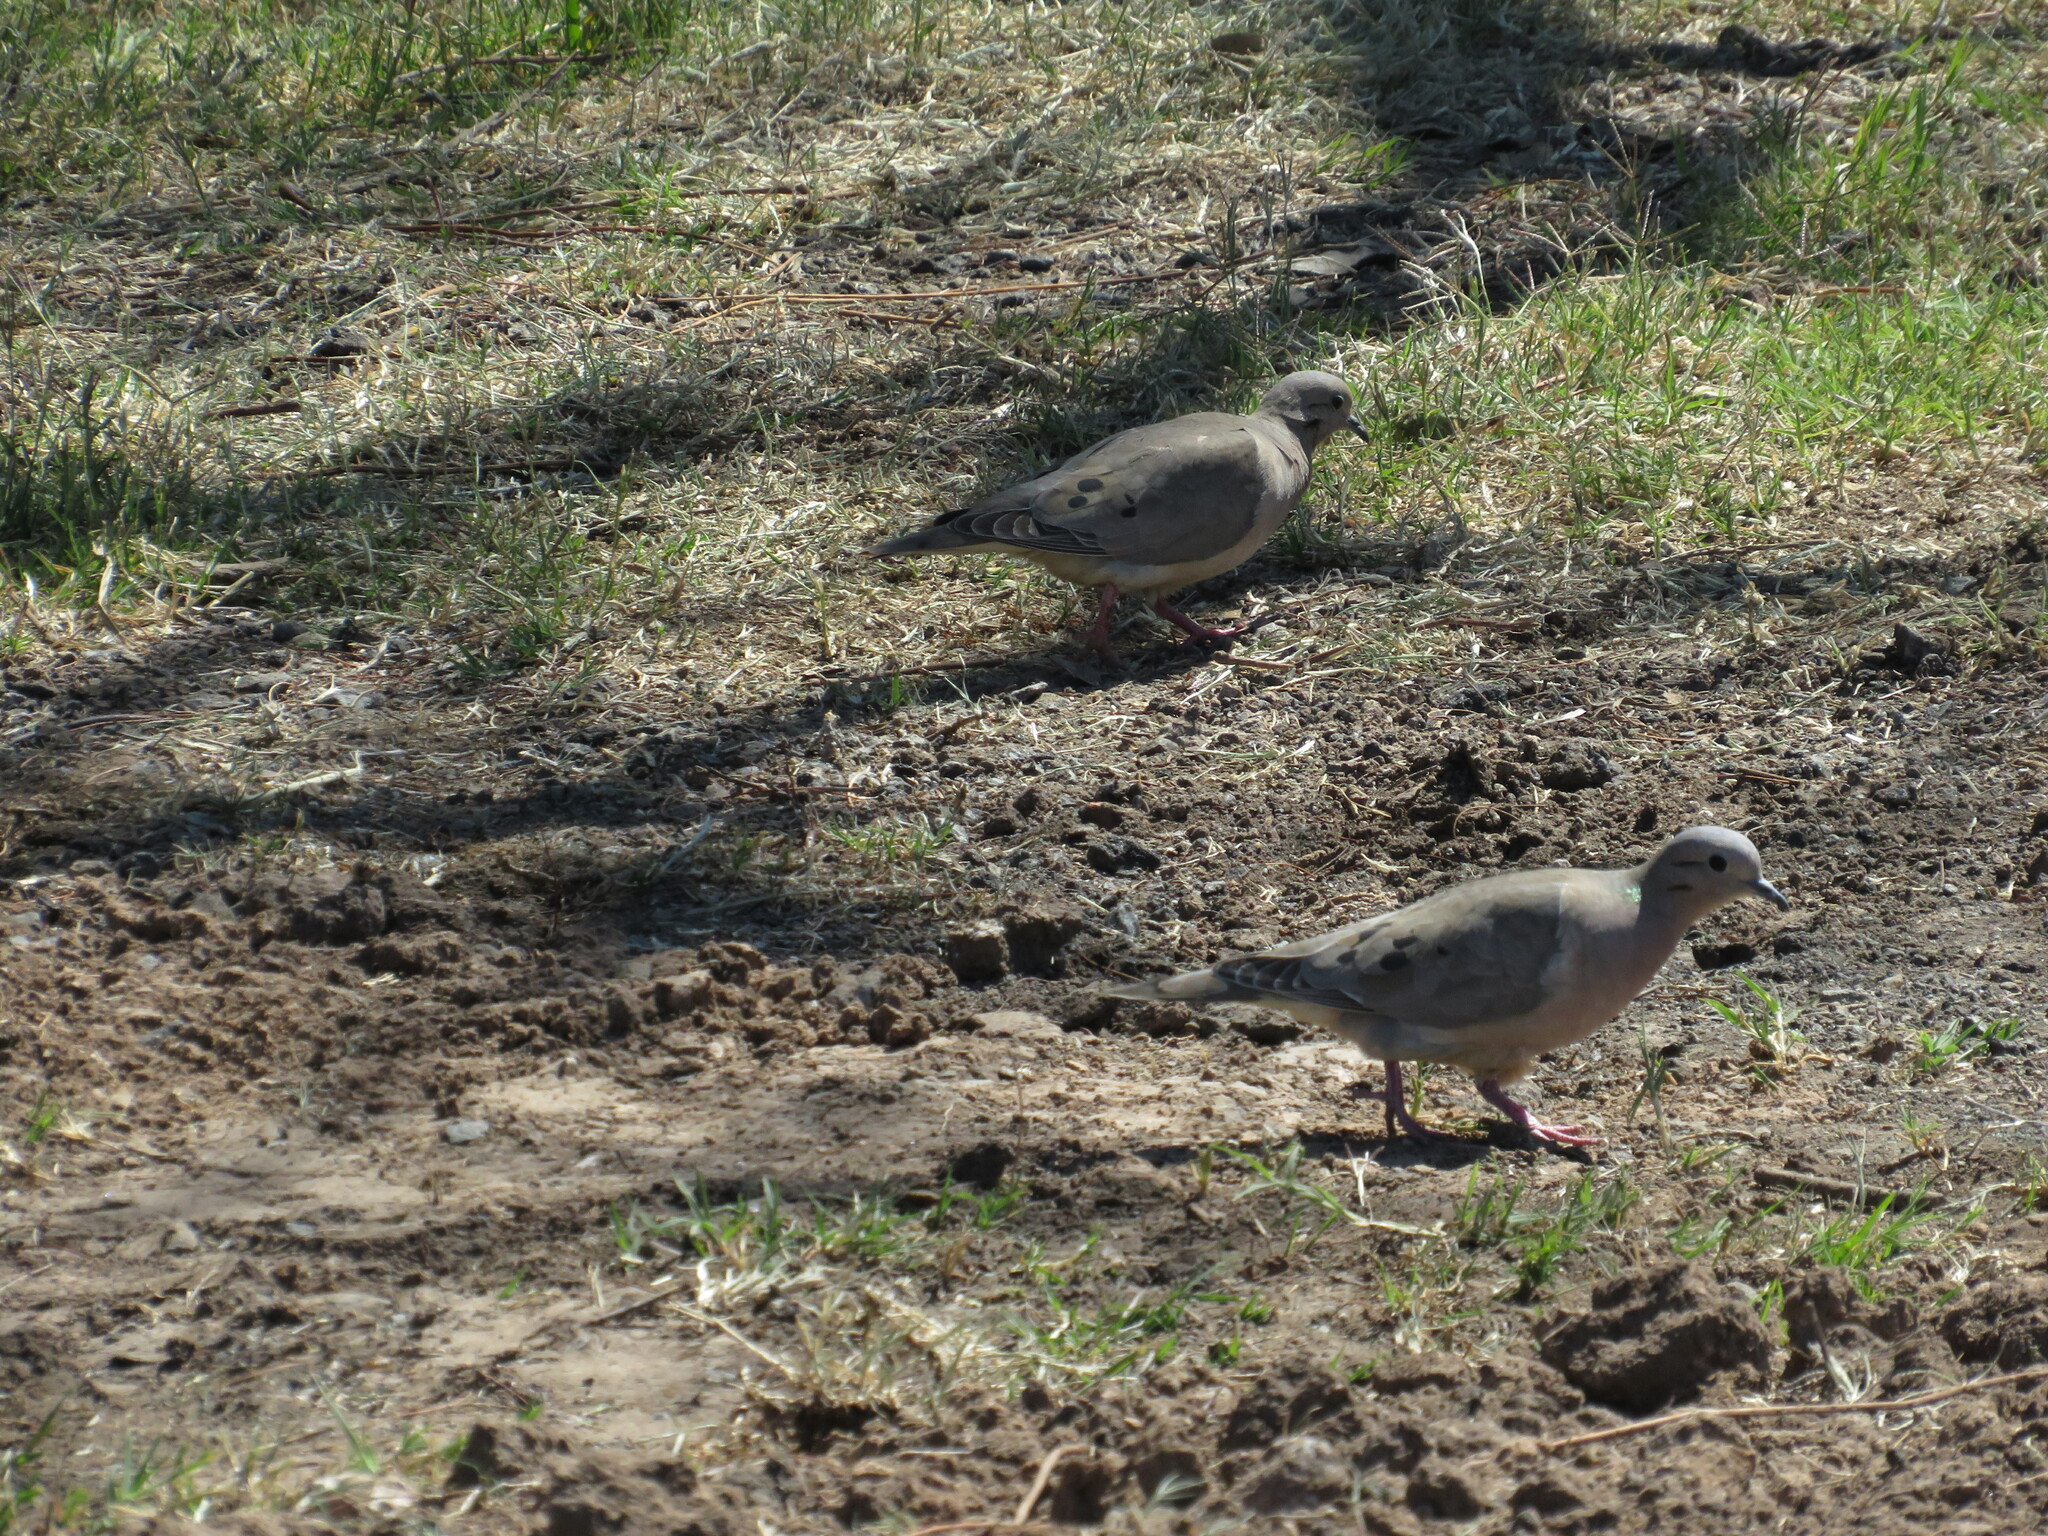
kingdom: Animalia
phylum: Chordata
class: Aves
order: Columbiformes
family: Columbidae
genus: Zenaida
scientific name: Zenaida auriculata
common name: Eared dove
